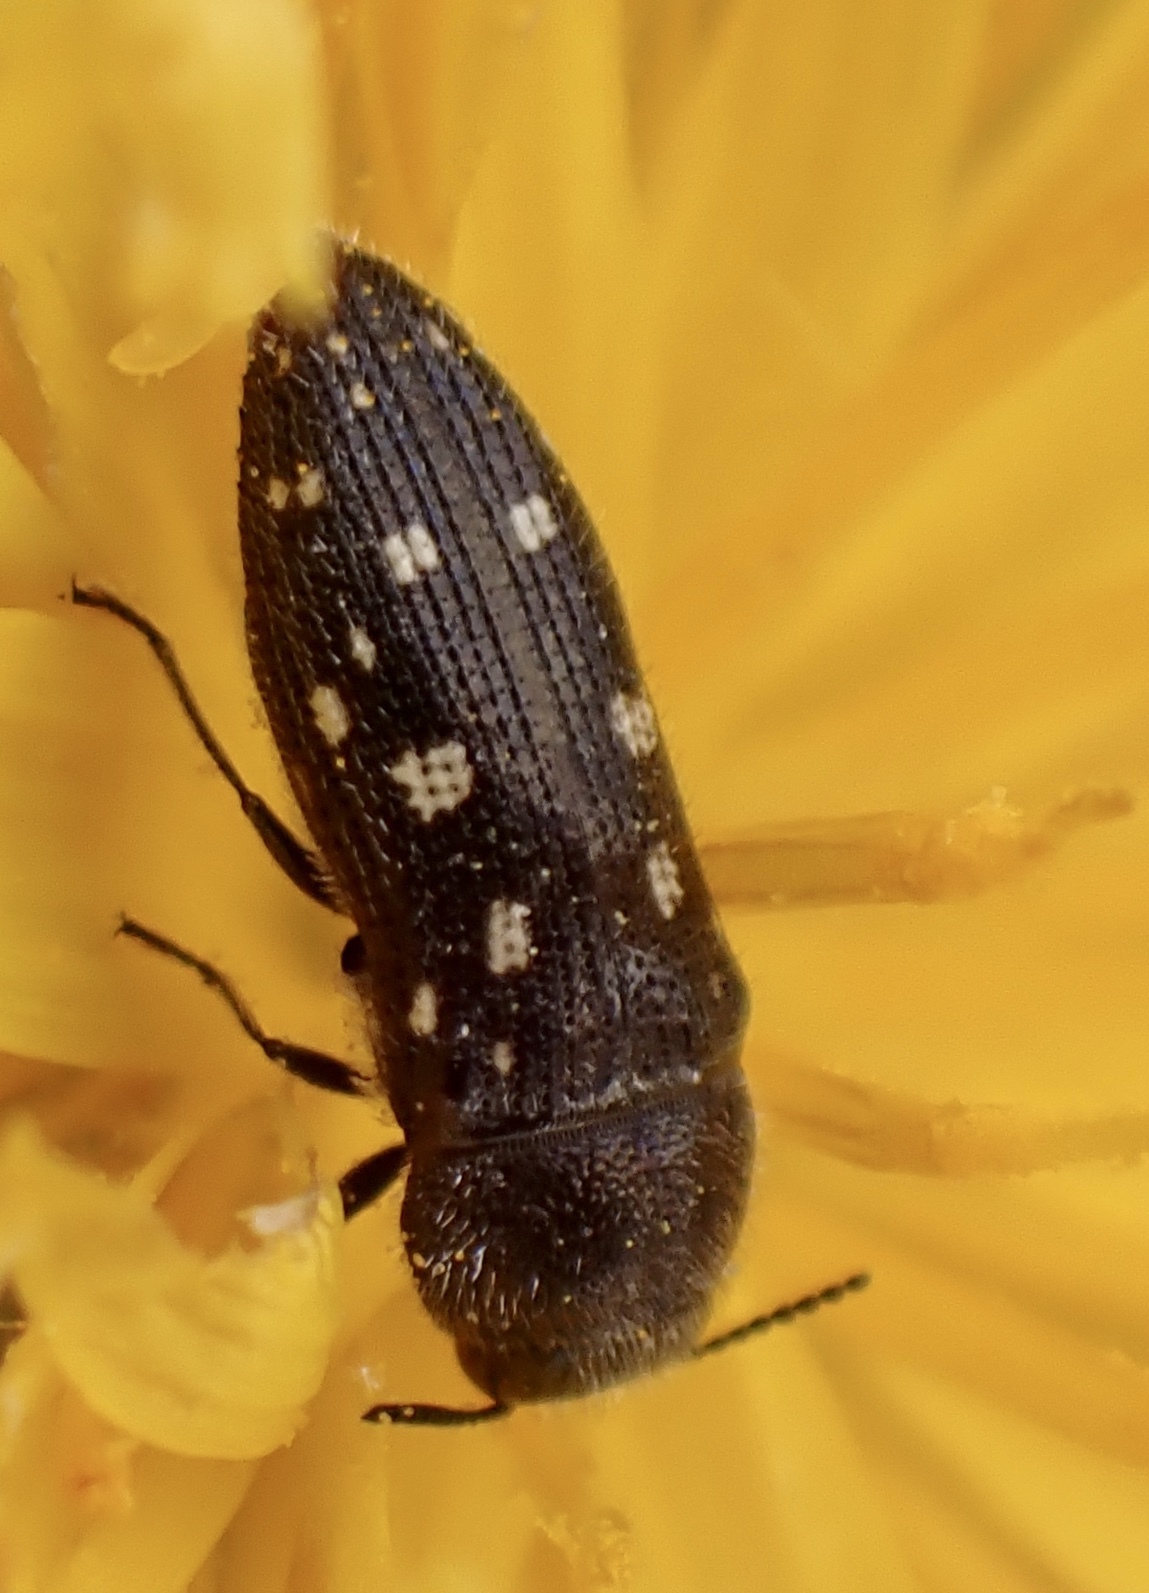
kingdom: Animalia
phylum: Arthropoda
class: Insecta
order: Coleoptera
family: Buprestidae
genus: Acmaeodera
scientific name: Acmaeodera tubulus
